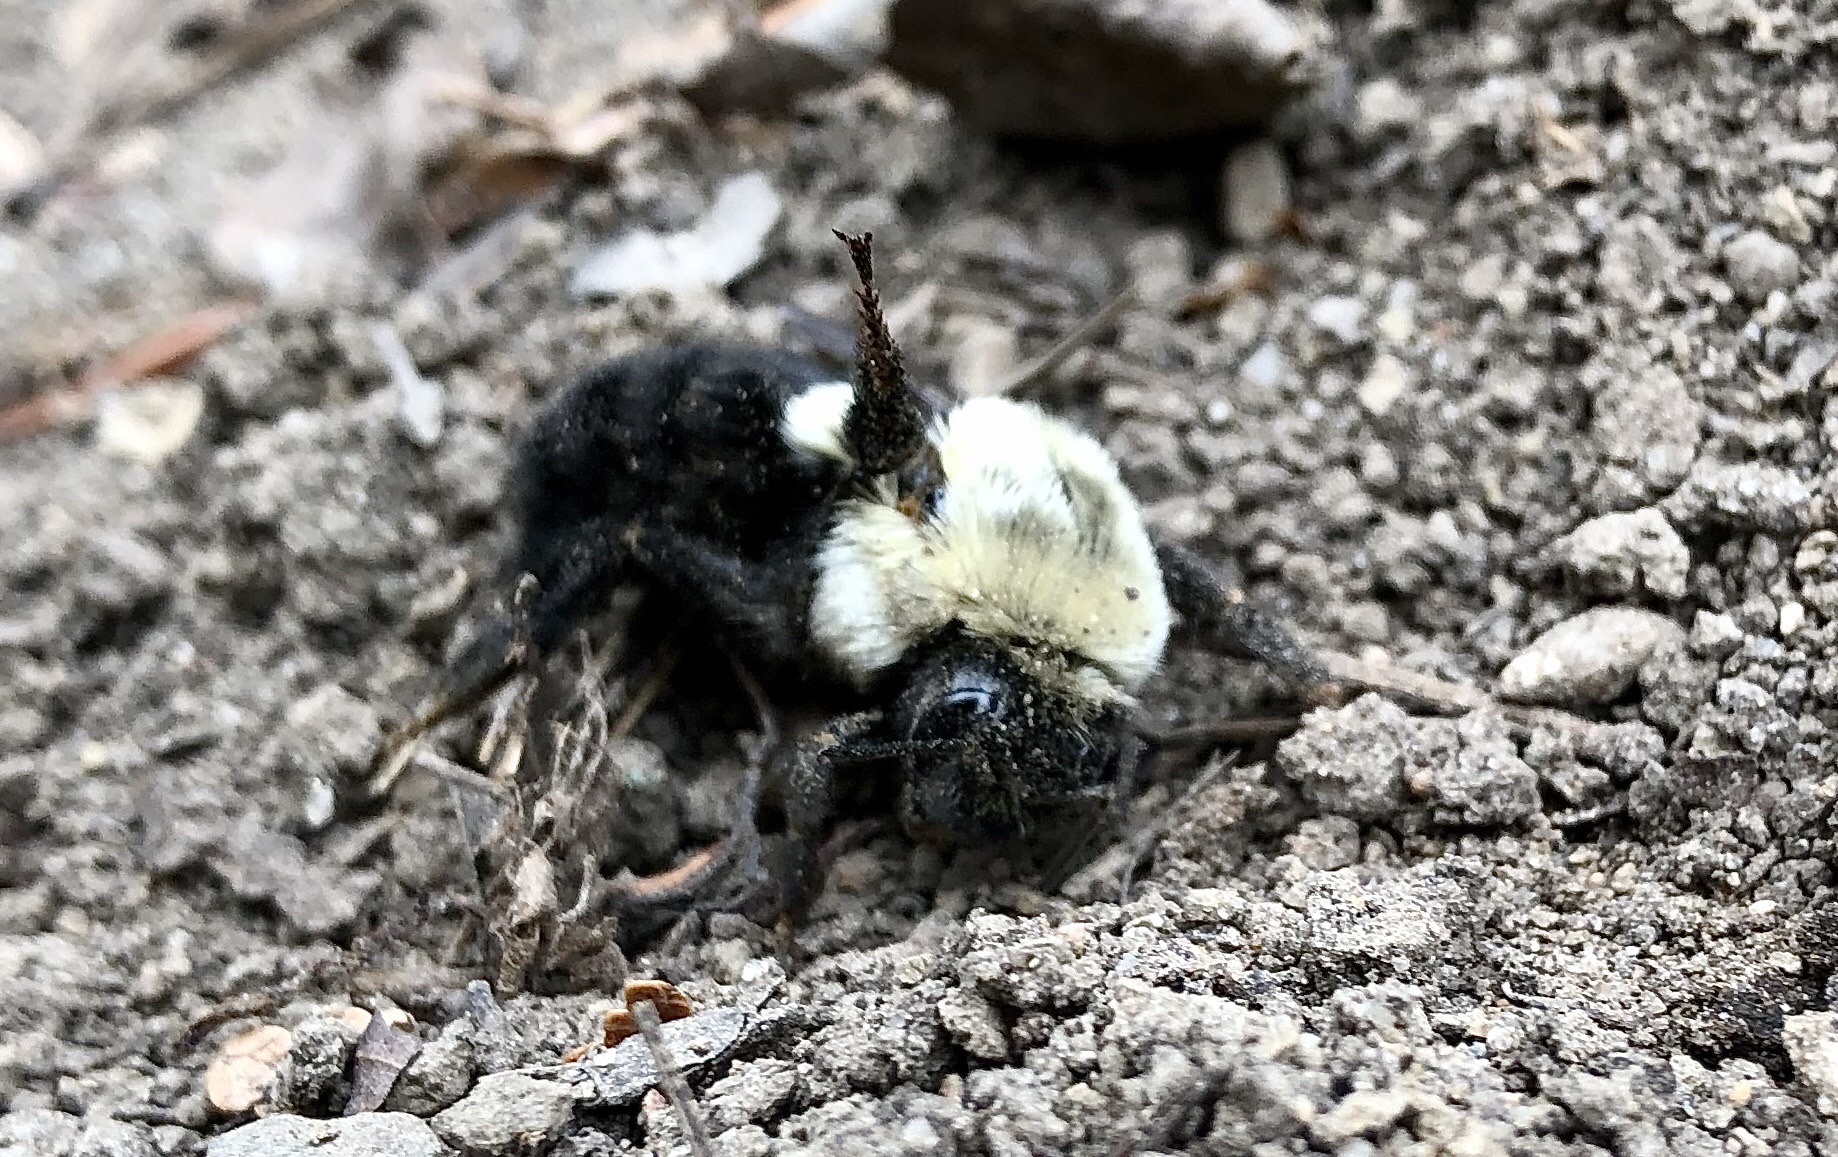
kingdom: Animalia
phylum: Arthropoda
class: Insecta
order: Hymenoptera
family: Apidae
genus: Bombus
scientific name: Bombus impatiens
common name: Common eastern bumble bee
